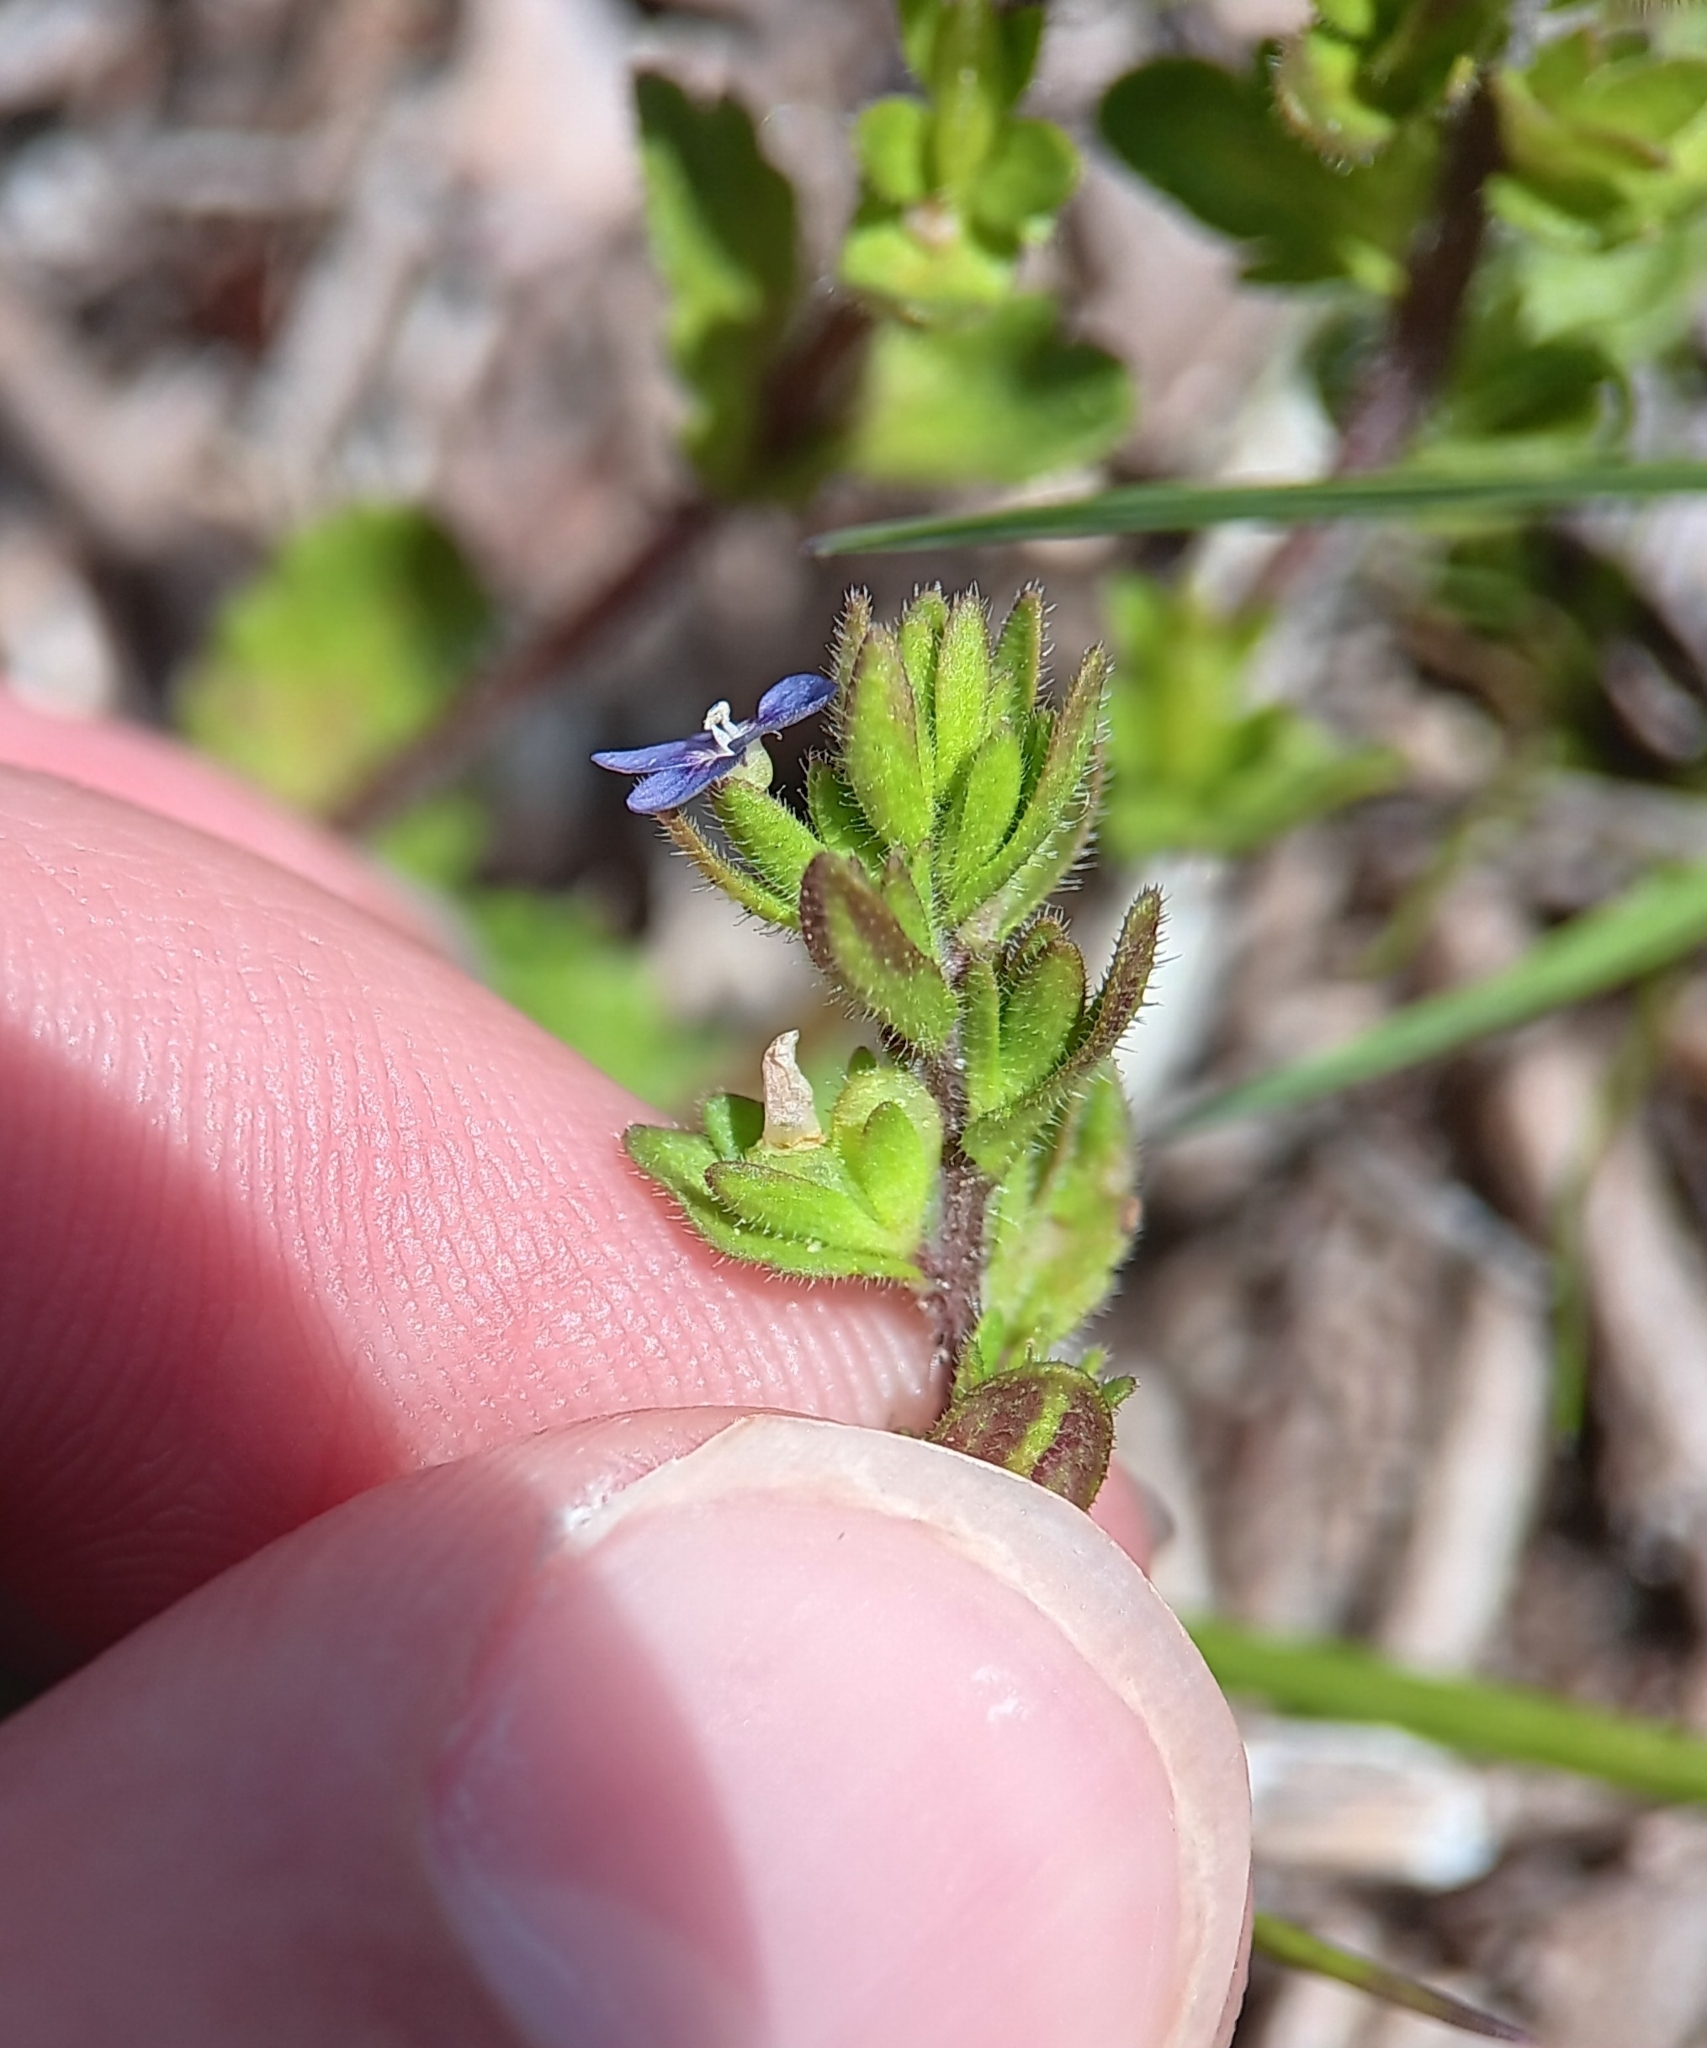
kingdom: Plantae
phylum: Tracheophyta
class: Magnoliopsida
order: Lamiales
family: Plantaginaceae
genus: Veronica
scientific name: Veronica arvensis
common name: Corn speedwell
